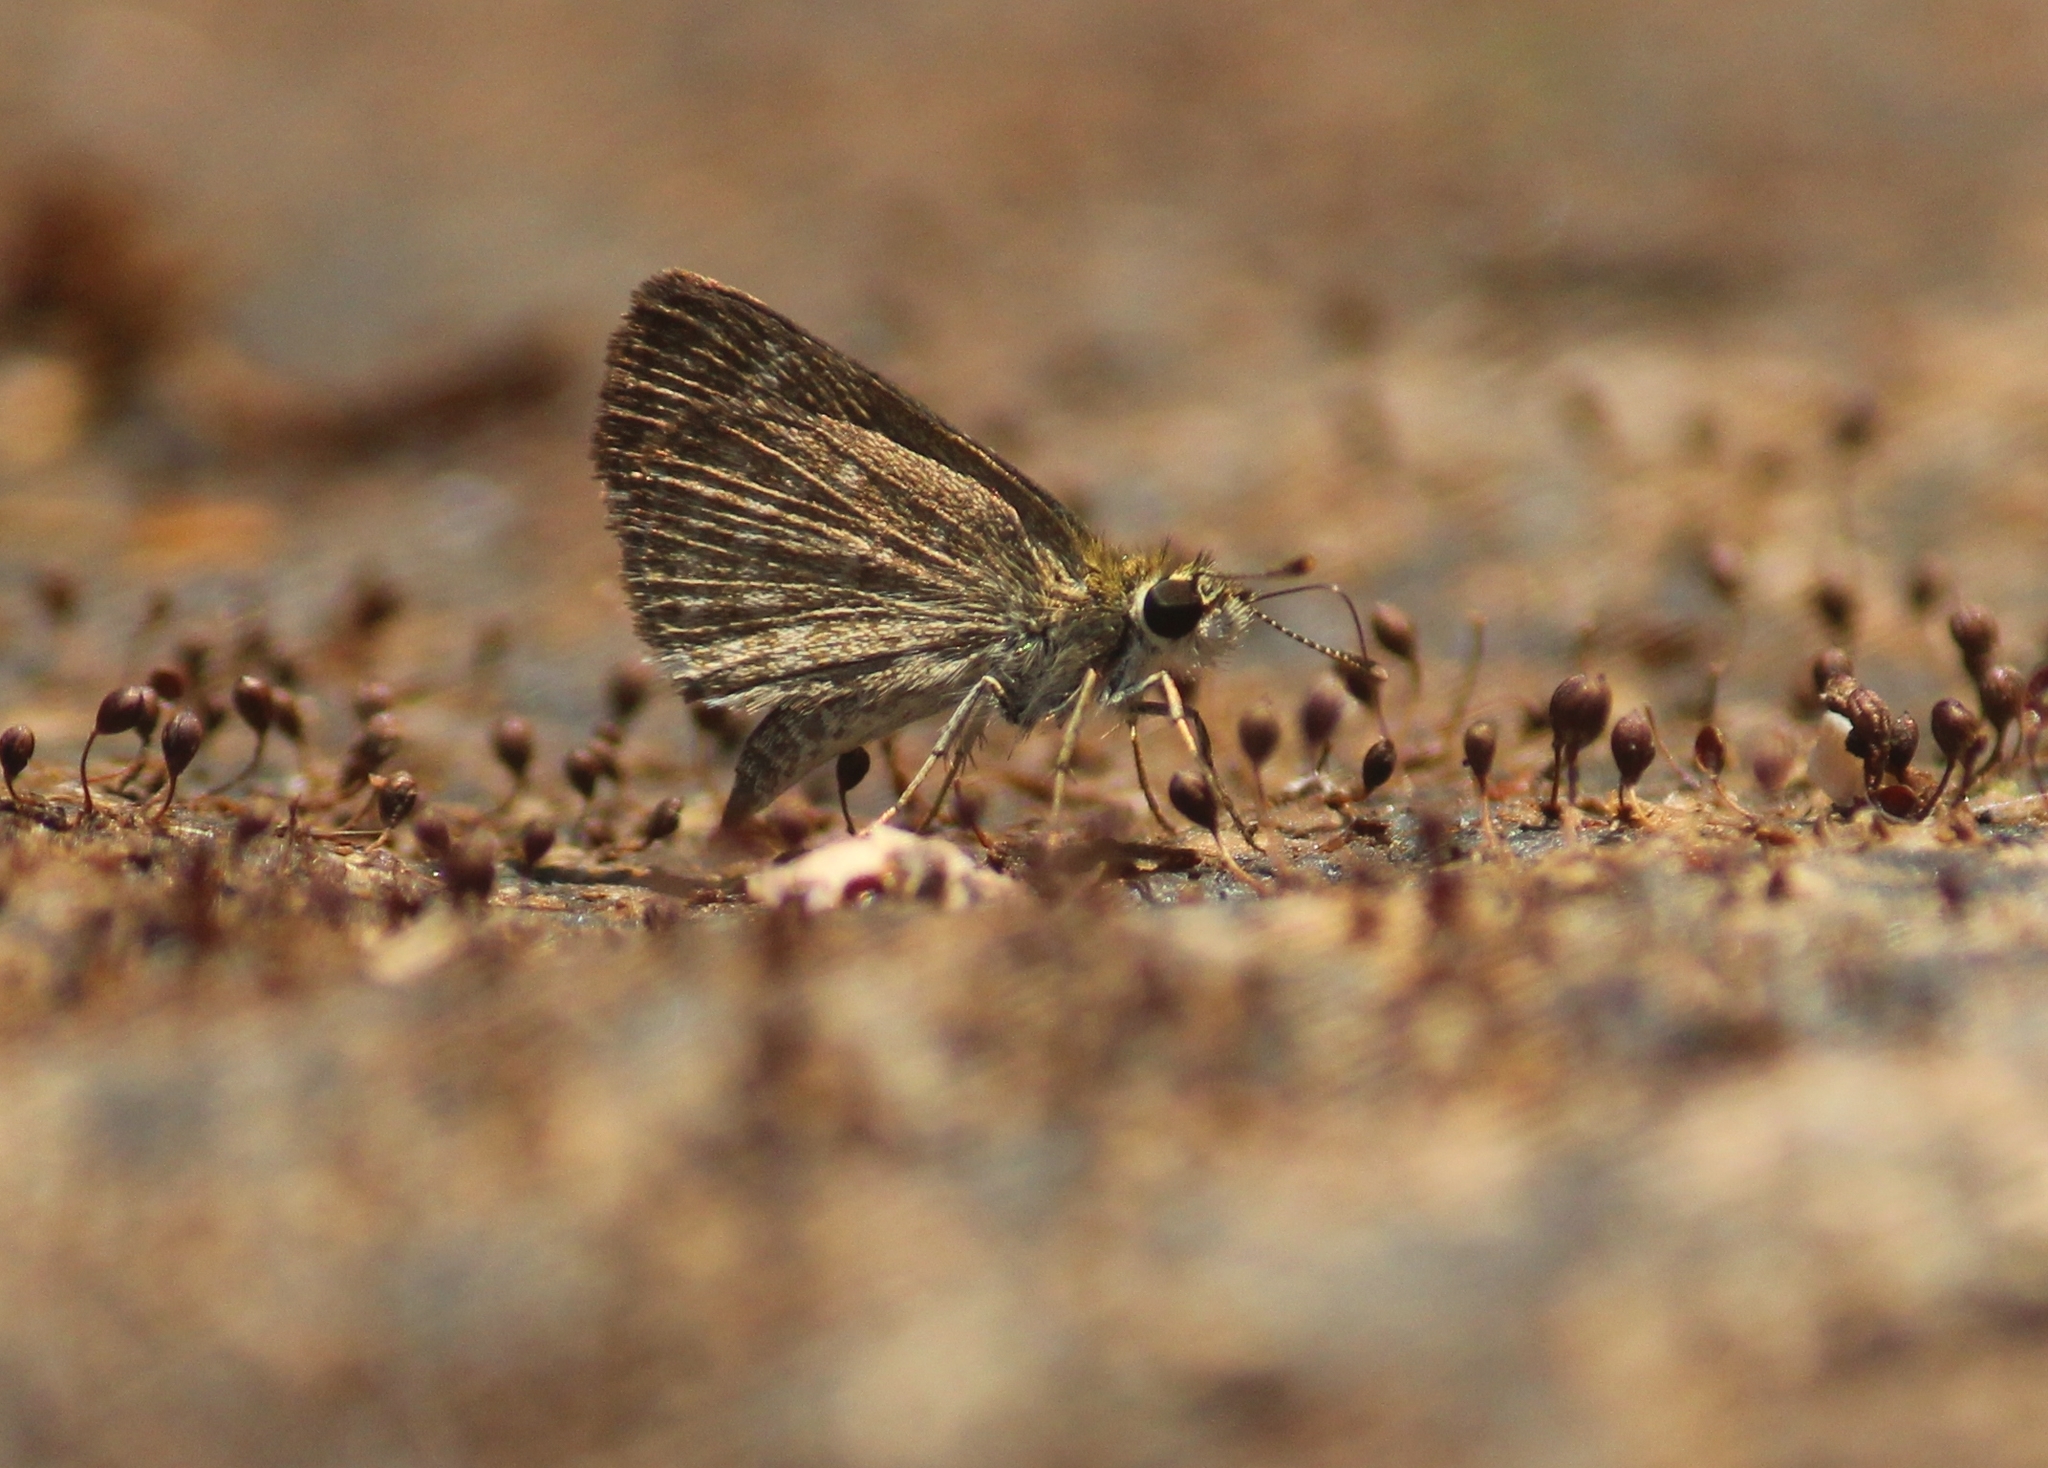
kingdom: Animalia
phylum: Arthropoda
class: Insecta
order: Lepidoptera
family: Hesperiidae
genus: Aeromachus
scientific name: Aeromachus pygmaeus
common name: Pygmy scrub hopper
